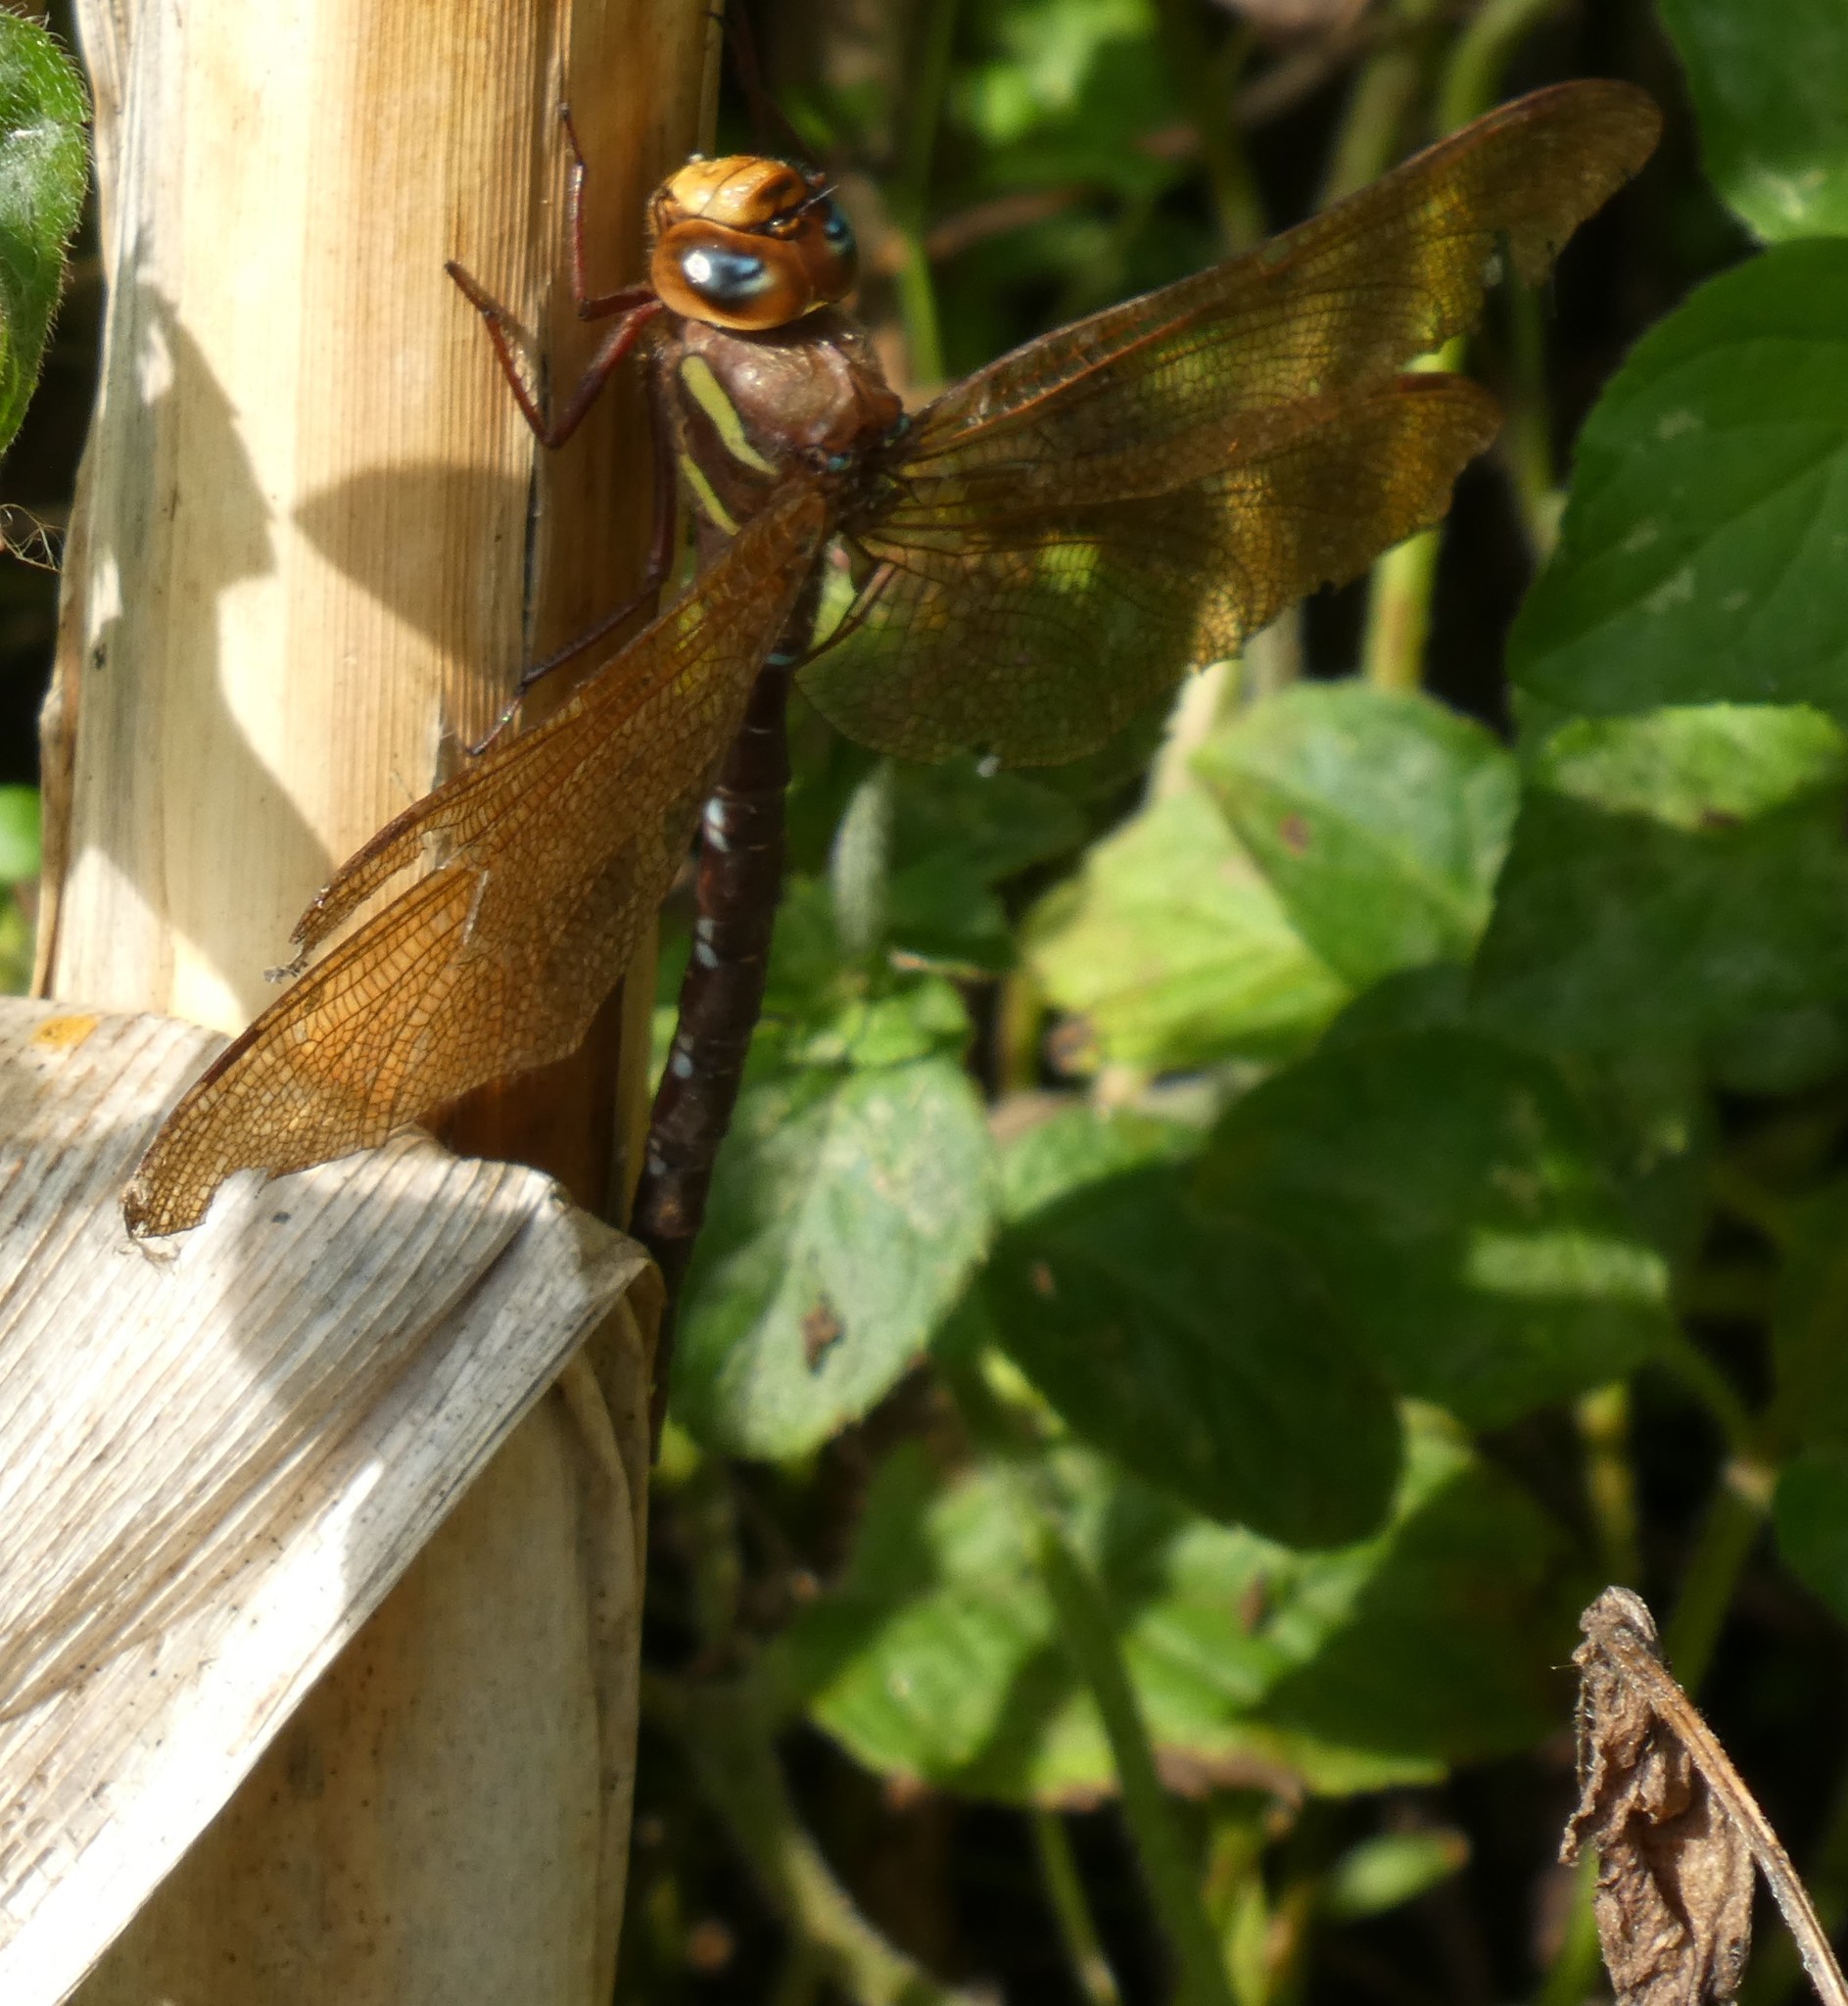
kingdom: Animalia
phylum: Arthropoda
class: Insecta
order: Odonata
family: Aeshnidae
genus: Aeshna
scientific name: Aeshna grandis
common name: Brown hawker
